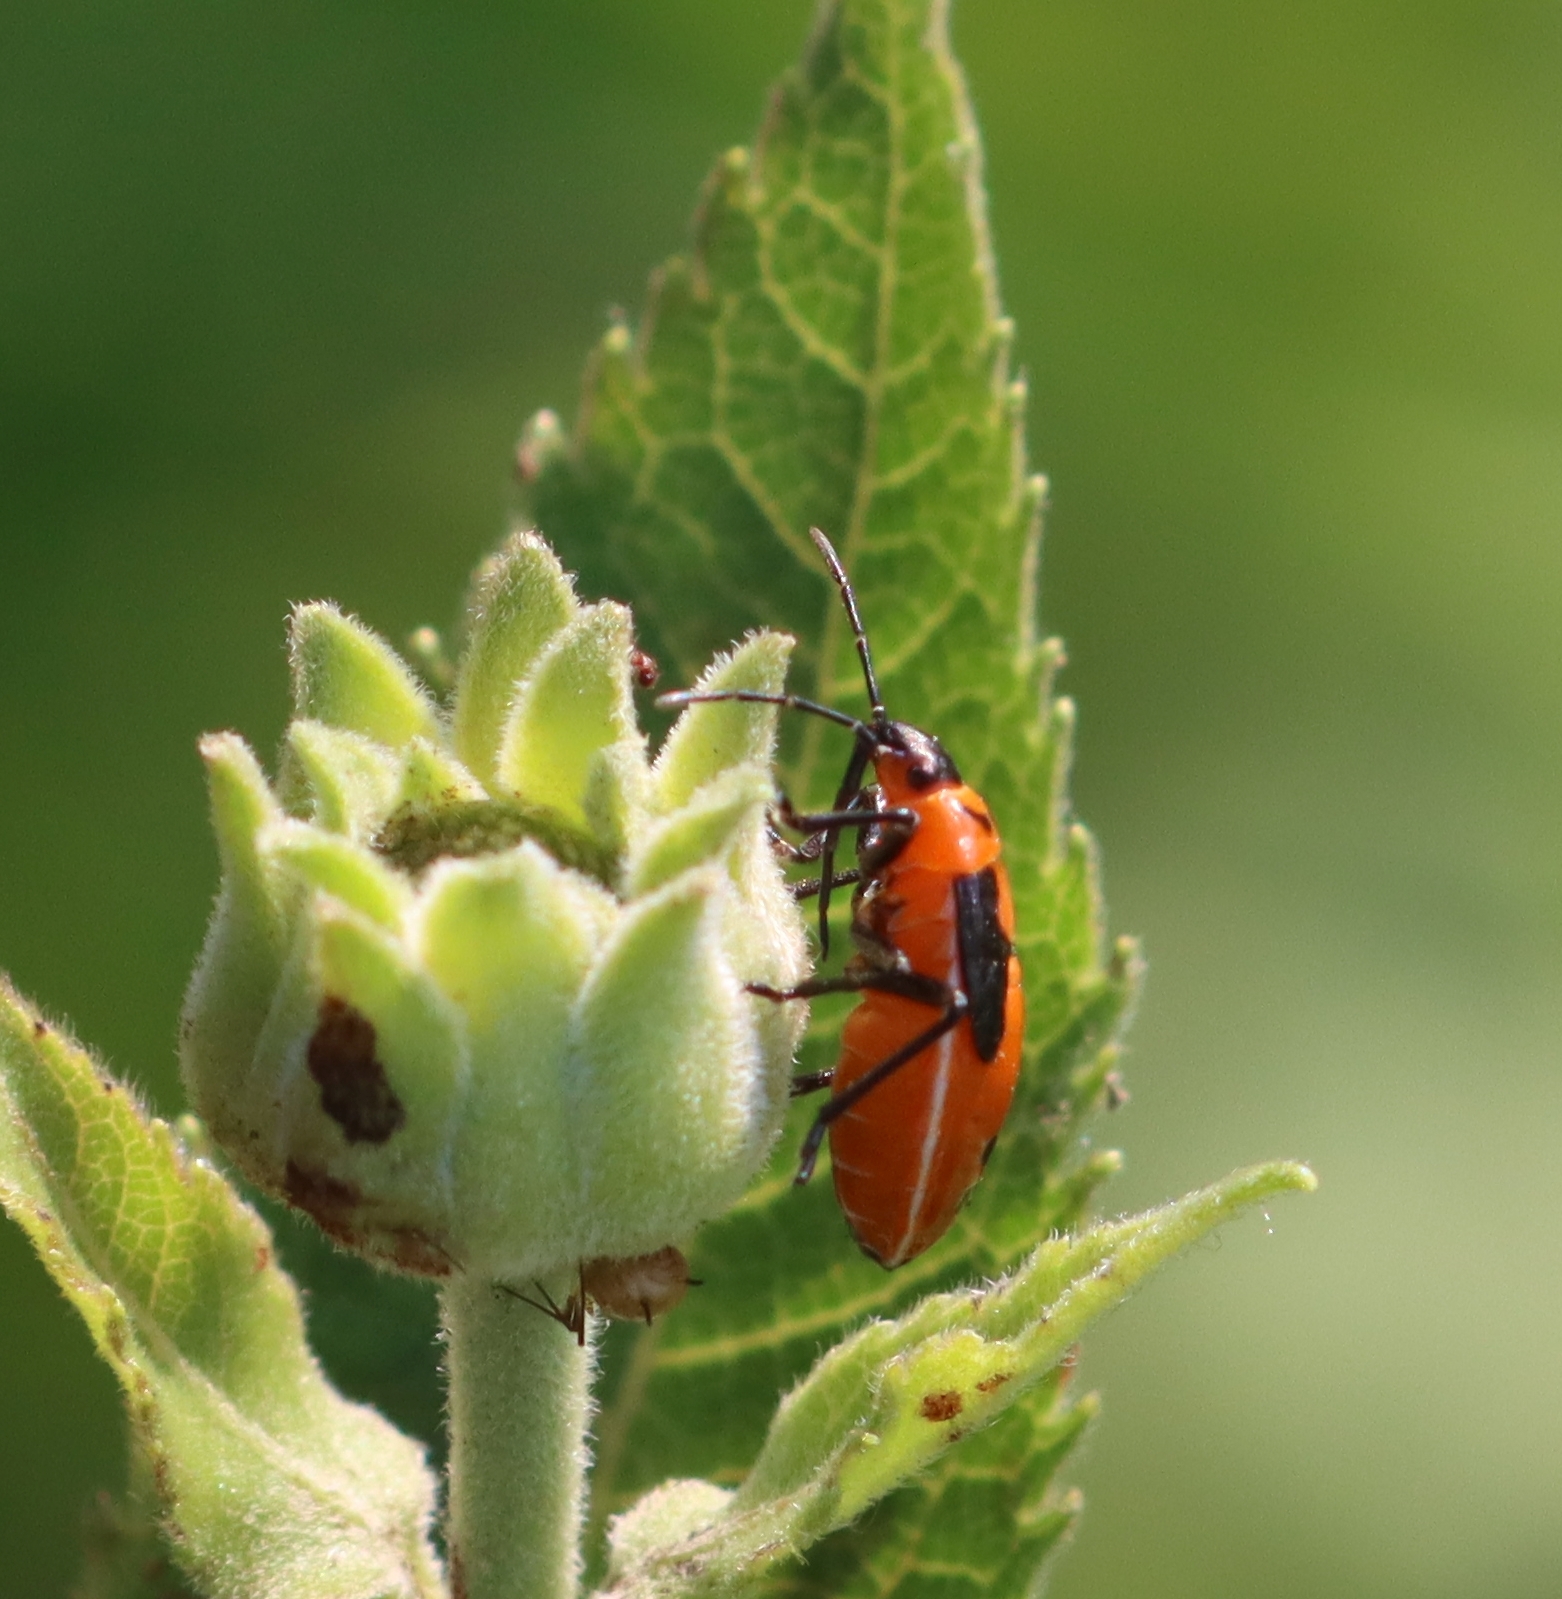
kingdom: Animalia
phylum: Arthropoda
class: Insecta
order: Hemiptera
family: Lygaeidae
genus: Lygaeus
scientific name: Lygaeus turcicus
